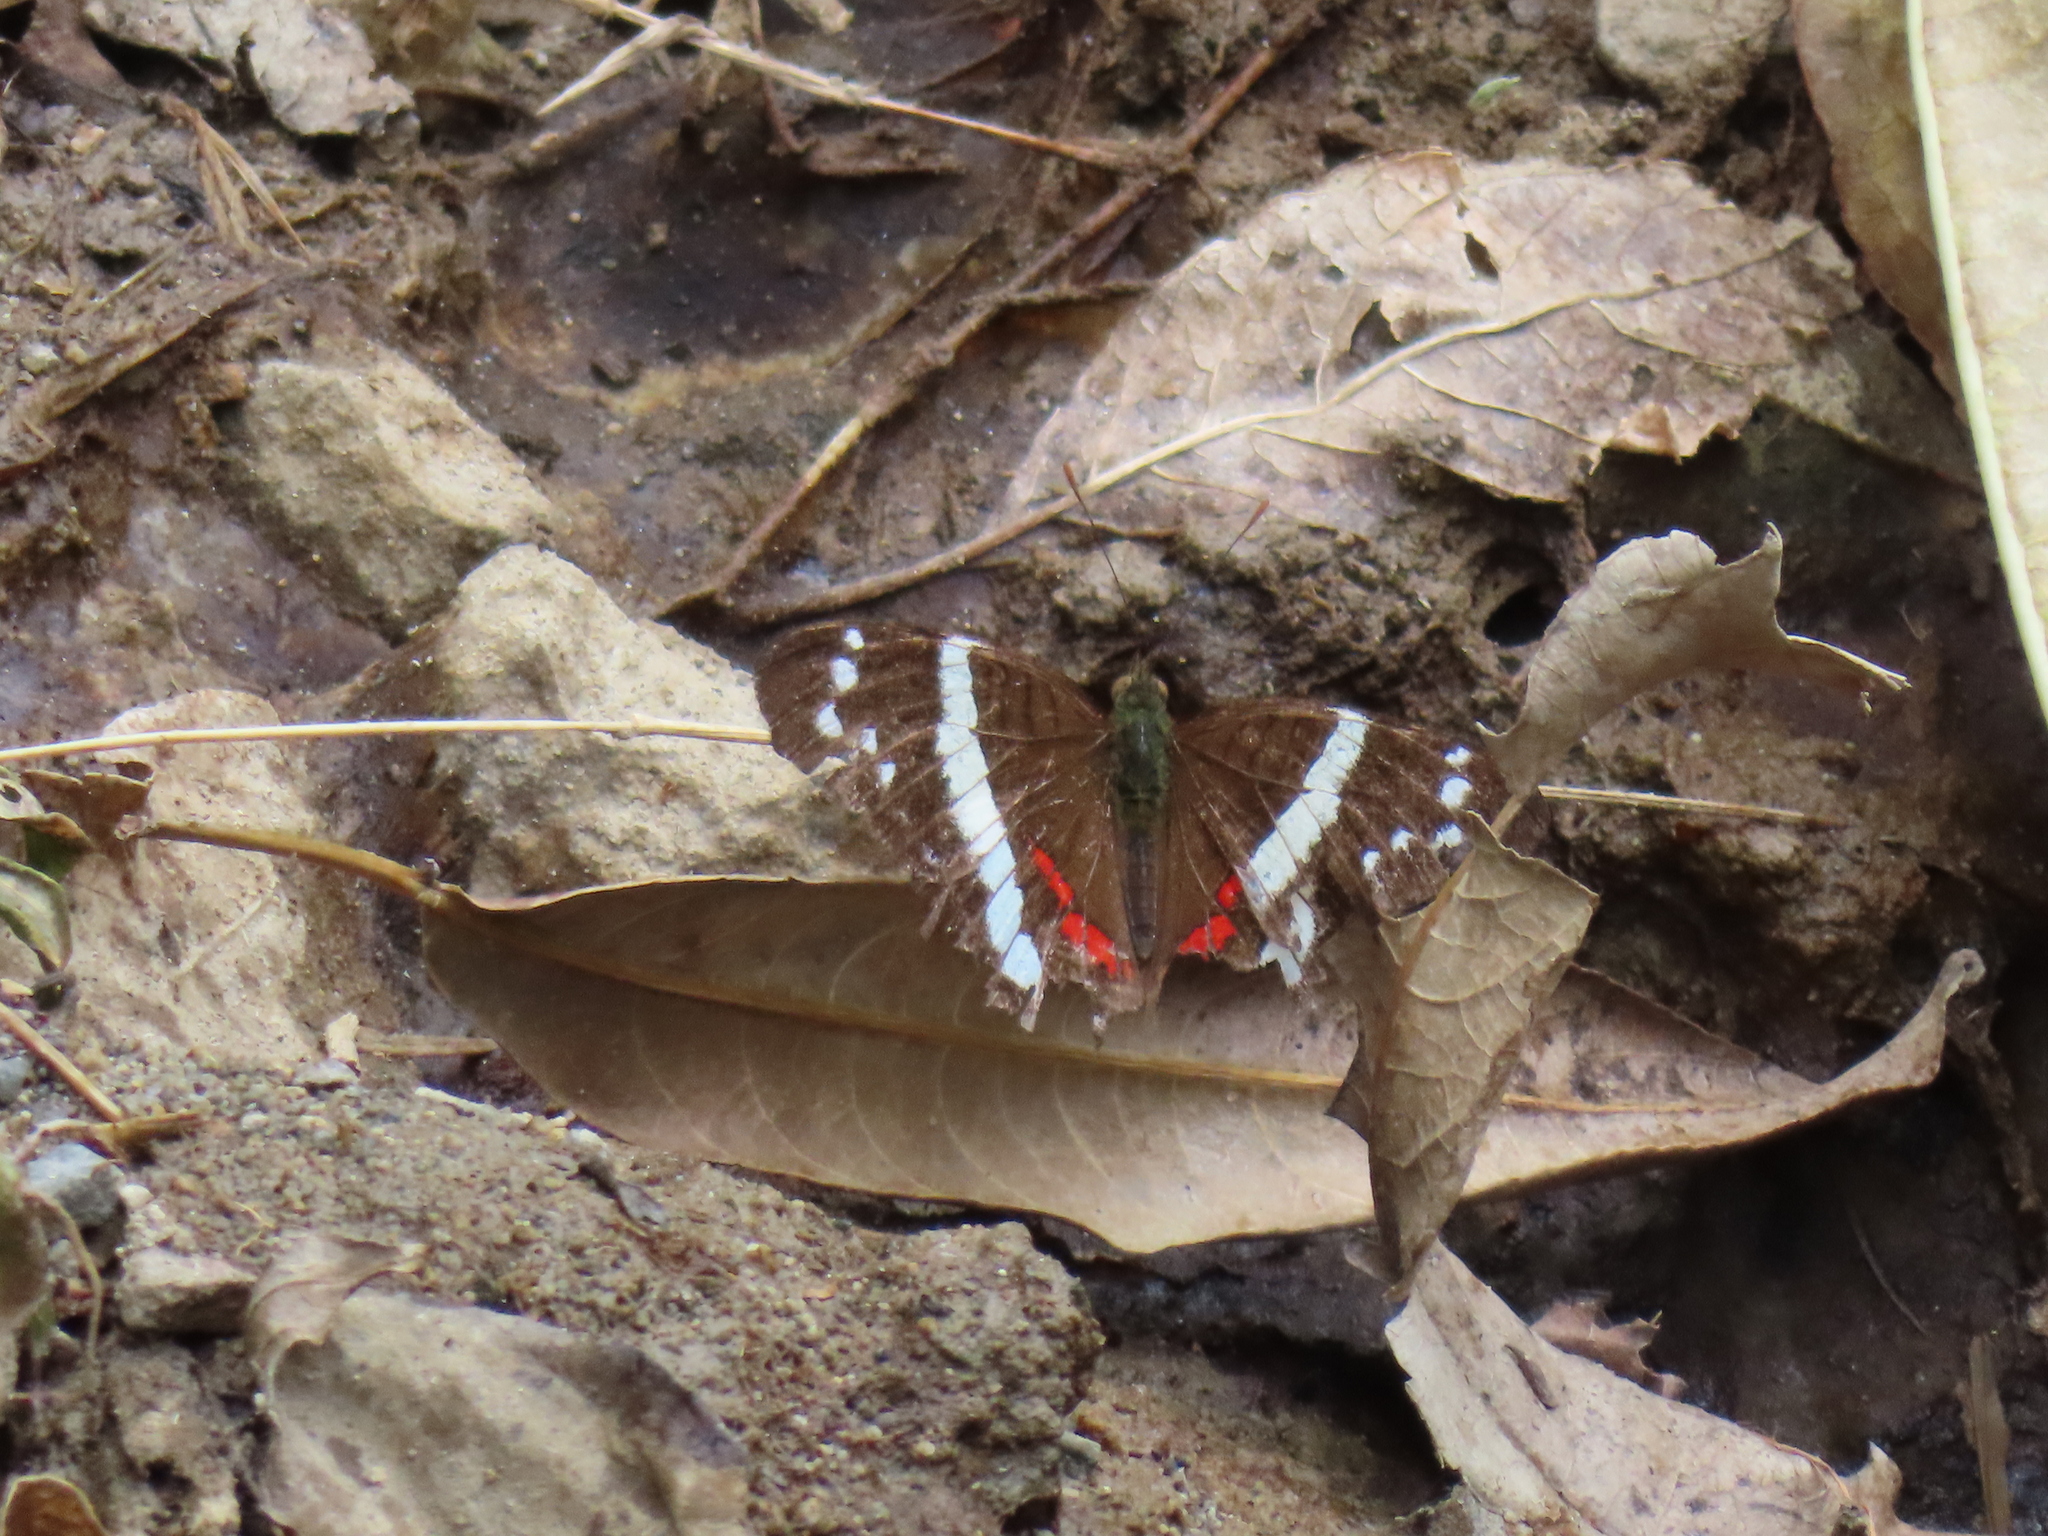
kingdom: Animalia
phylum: Arthropoda
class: Insecta
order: Lepidoptera
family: Nymphalidae
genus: Anartia
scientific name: Anartia fatima
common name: Banded peacock
